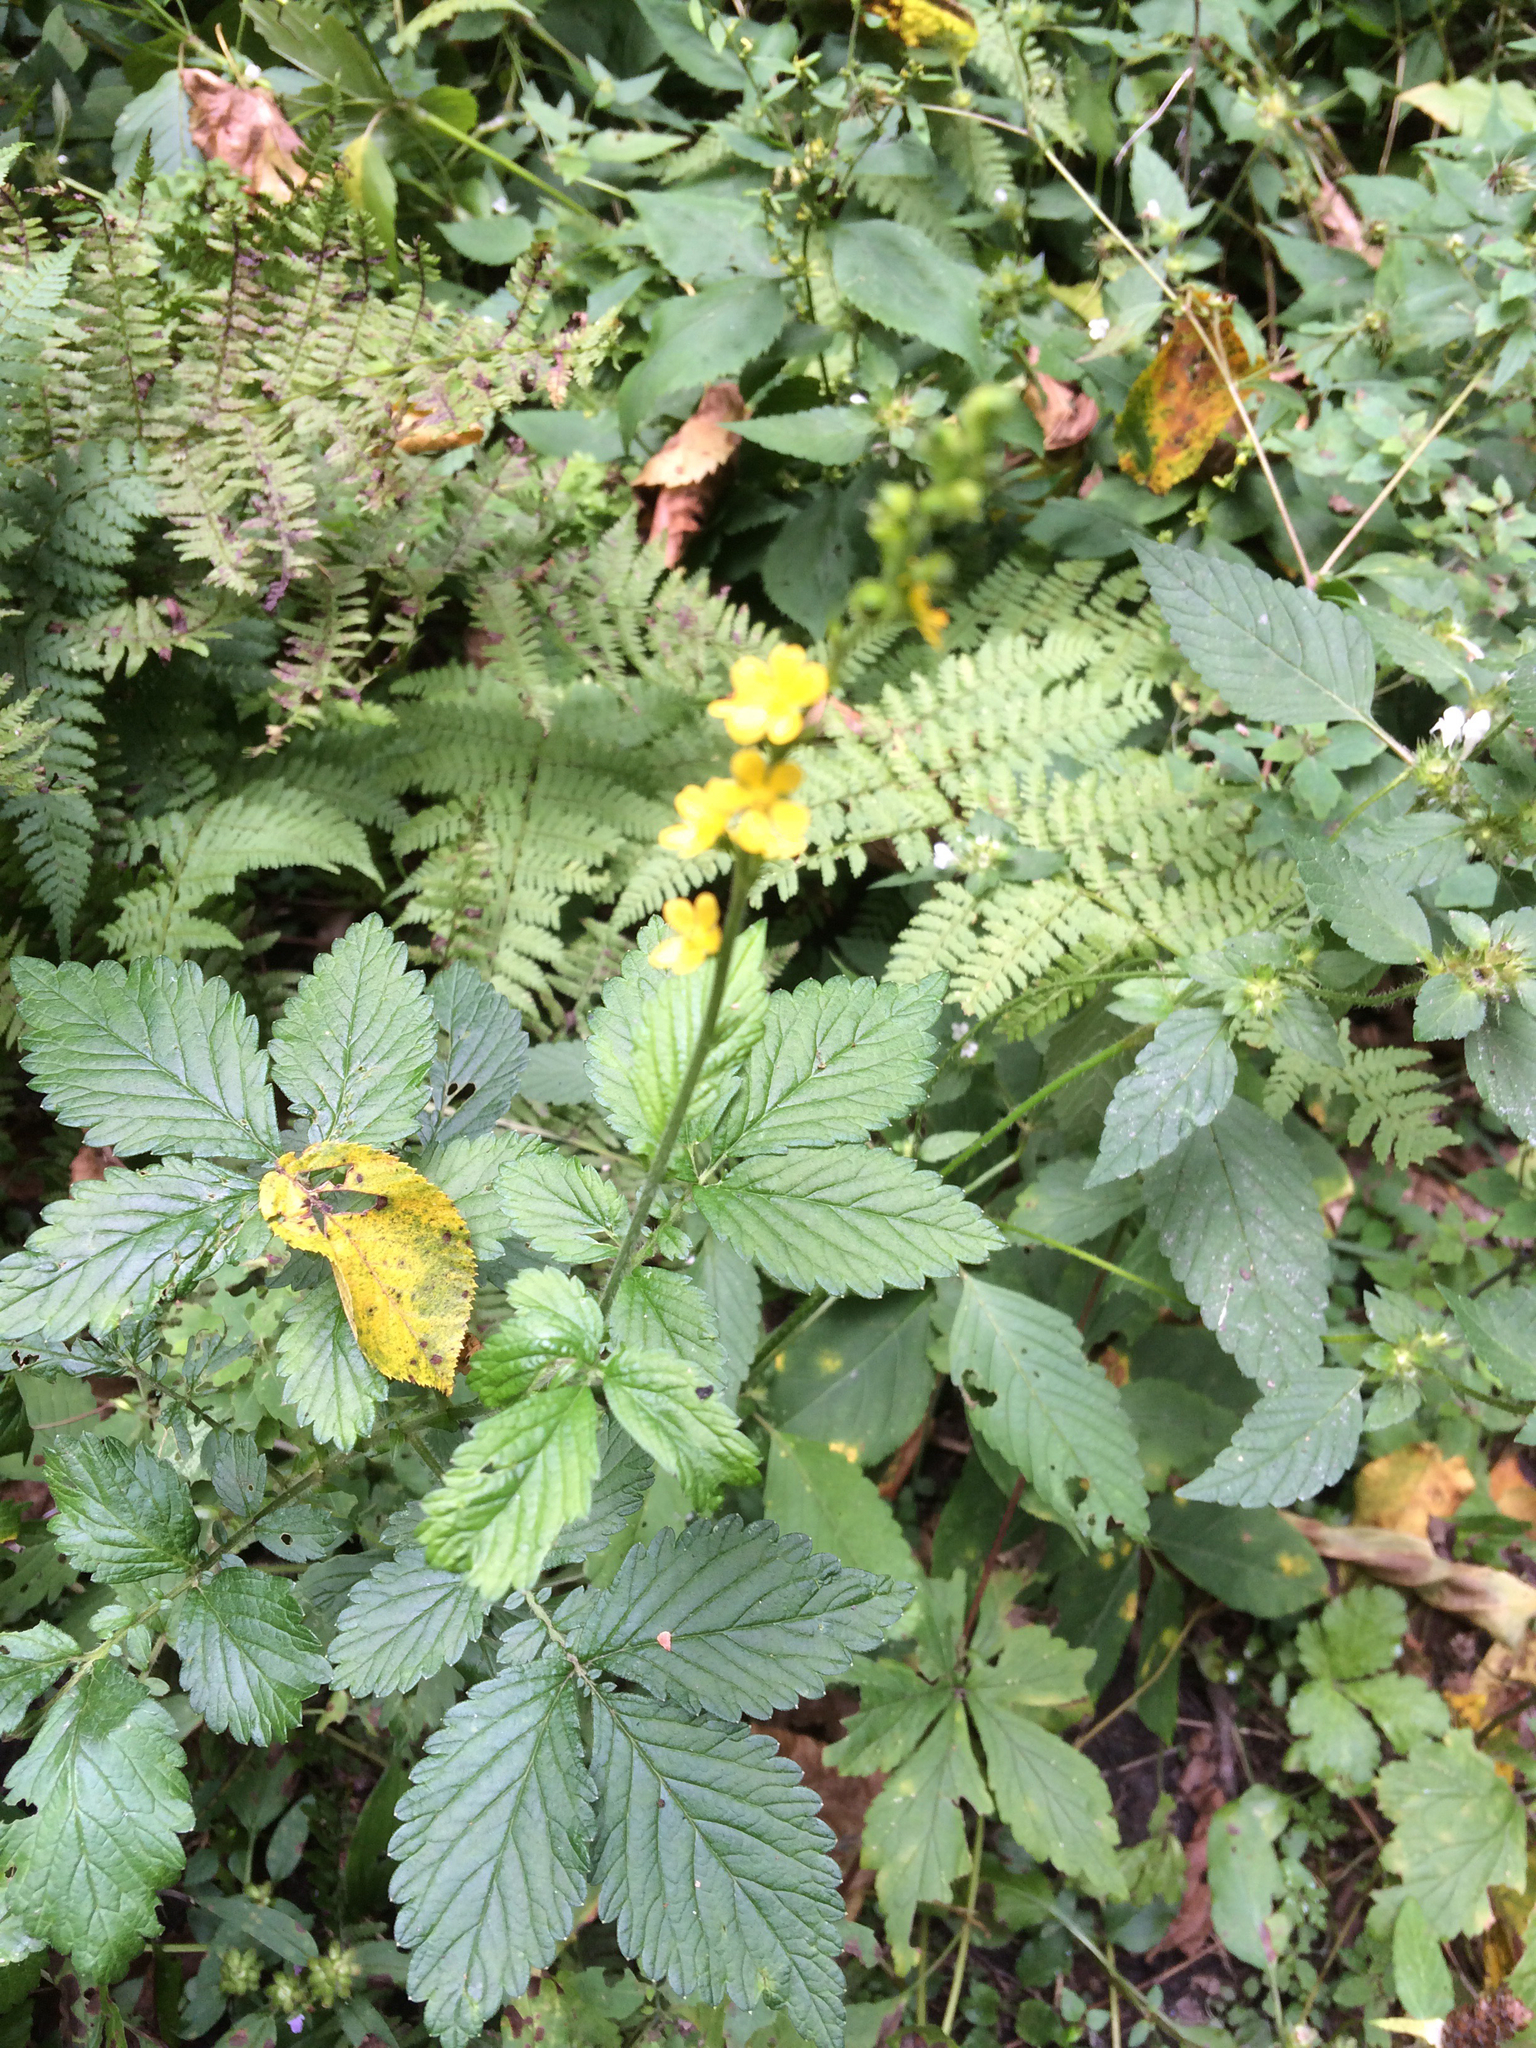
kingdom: Plantae
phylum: Tracheophyta
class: Magnoliopsida
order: Rosales
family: Rosaceae
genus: Agrimonia
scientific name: Agrimonia gryposepala
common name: Common agrimony
